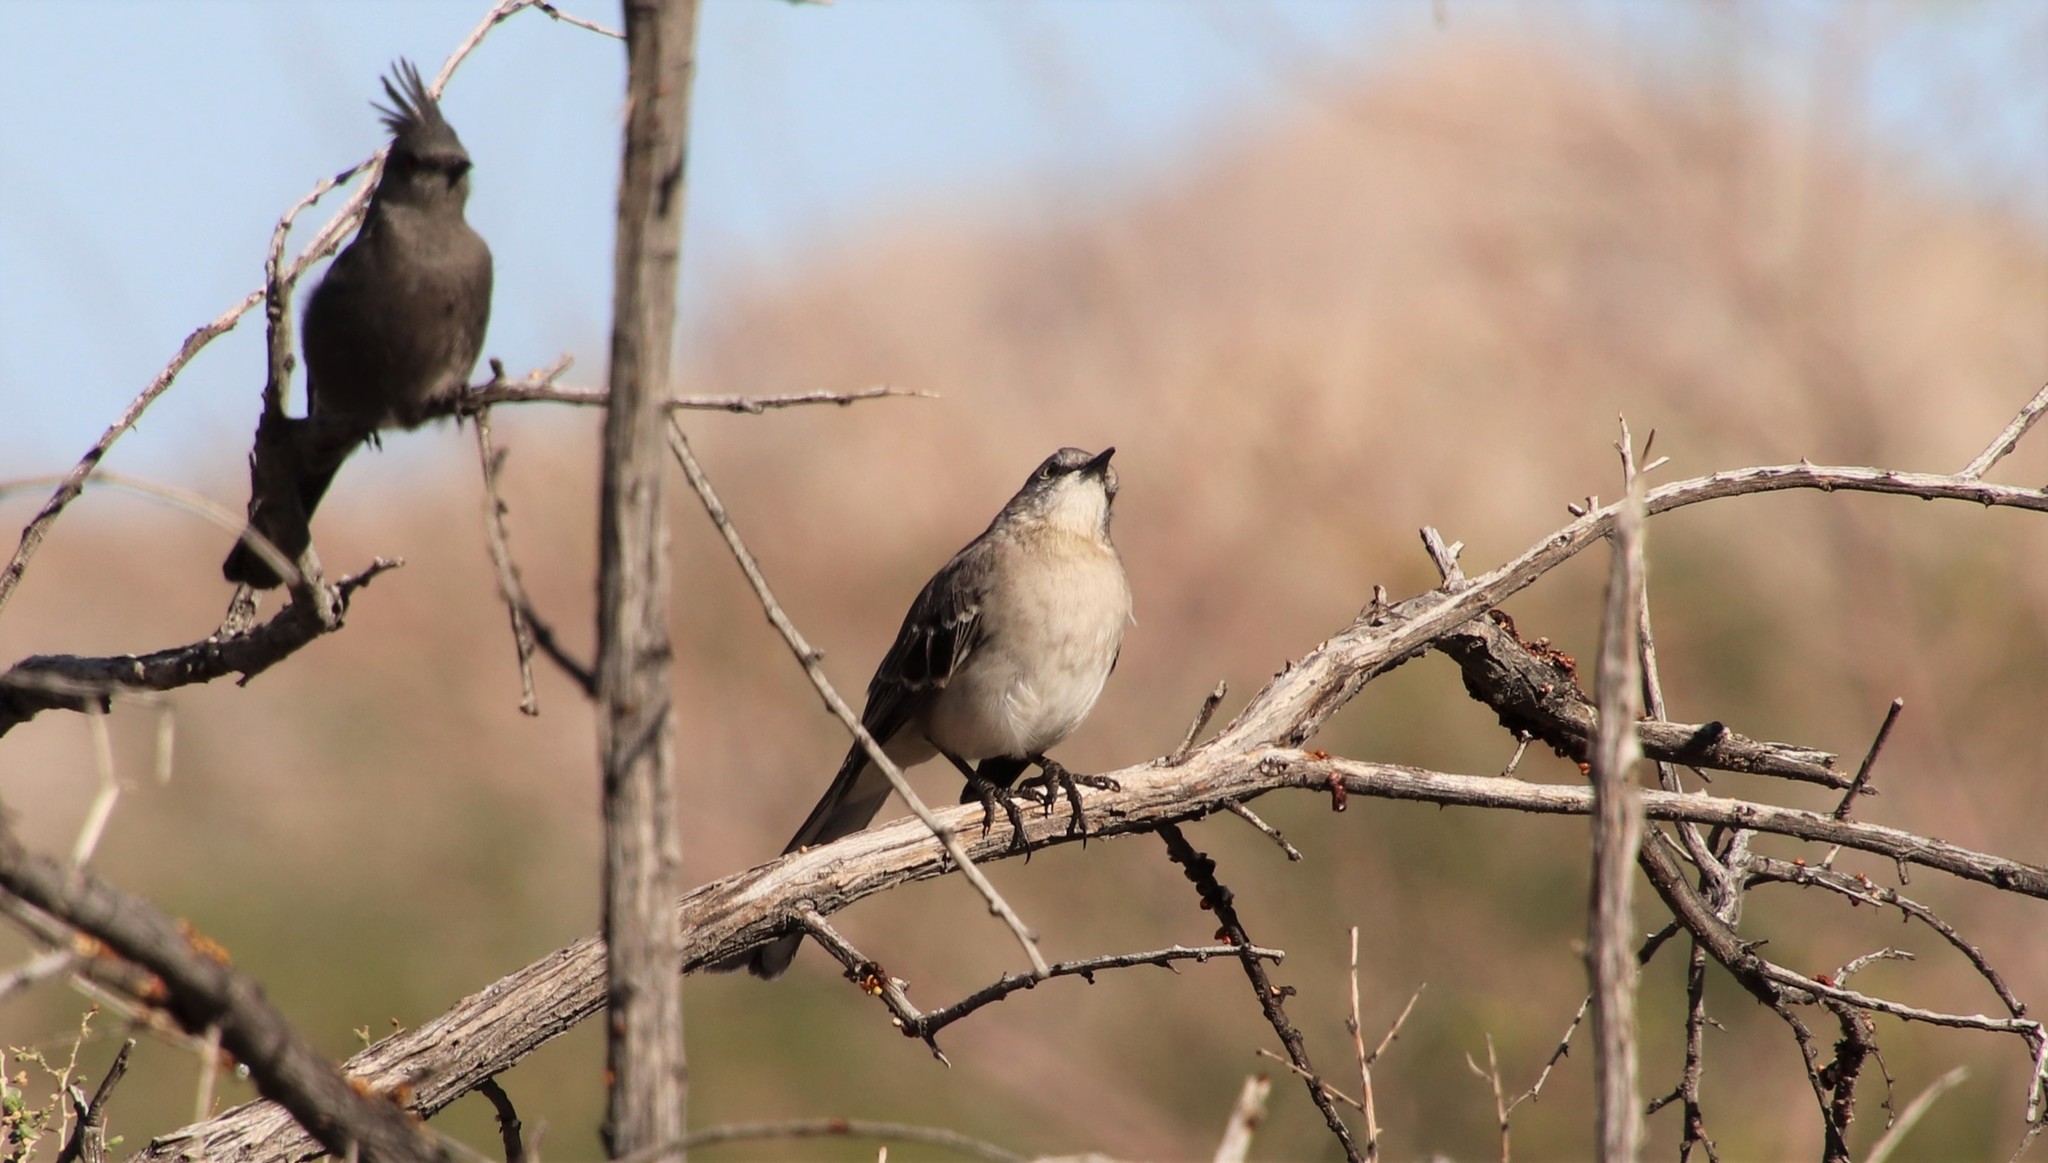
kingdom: Animalia
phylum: Chordata
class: Aves
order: Passeriformes
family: Mimidae
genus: Mimus
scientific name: Mimus polyglottos
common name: Northern mockingbird
